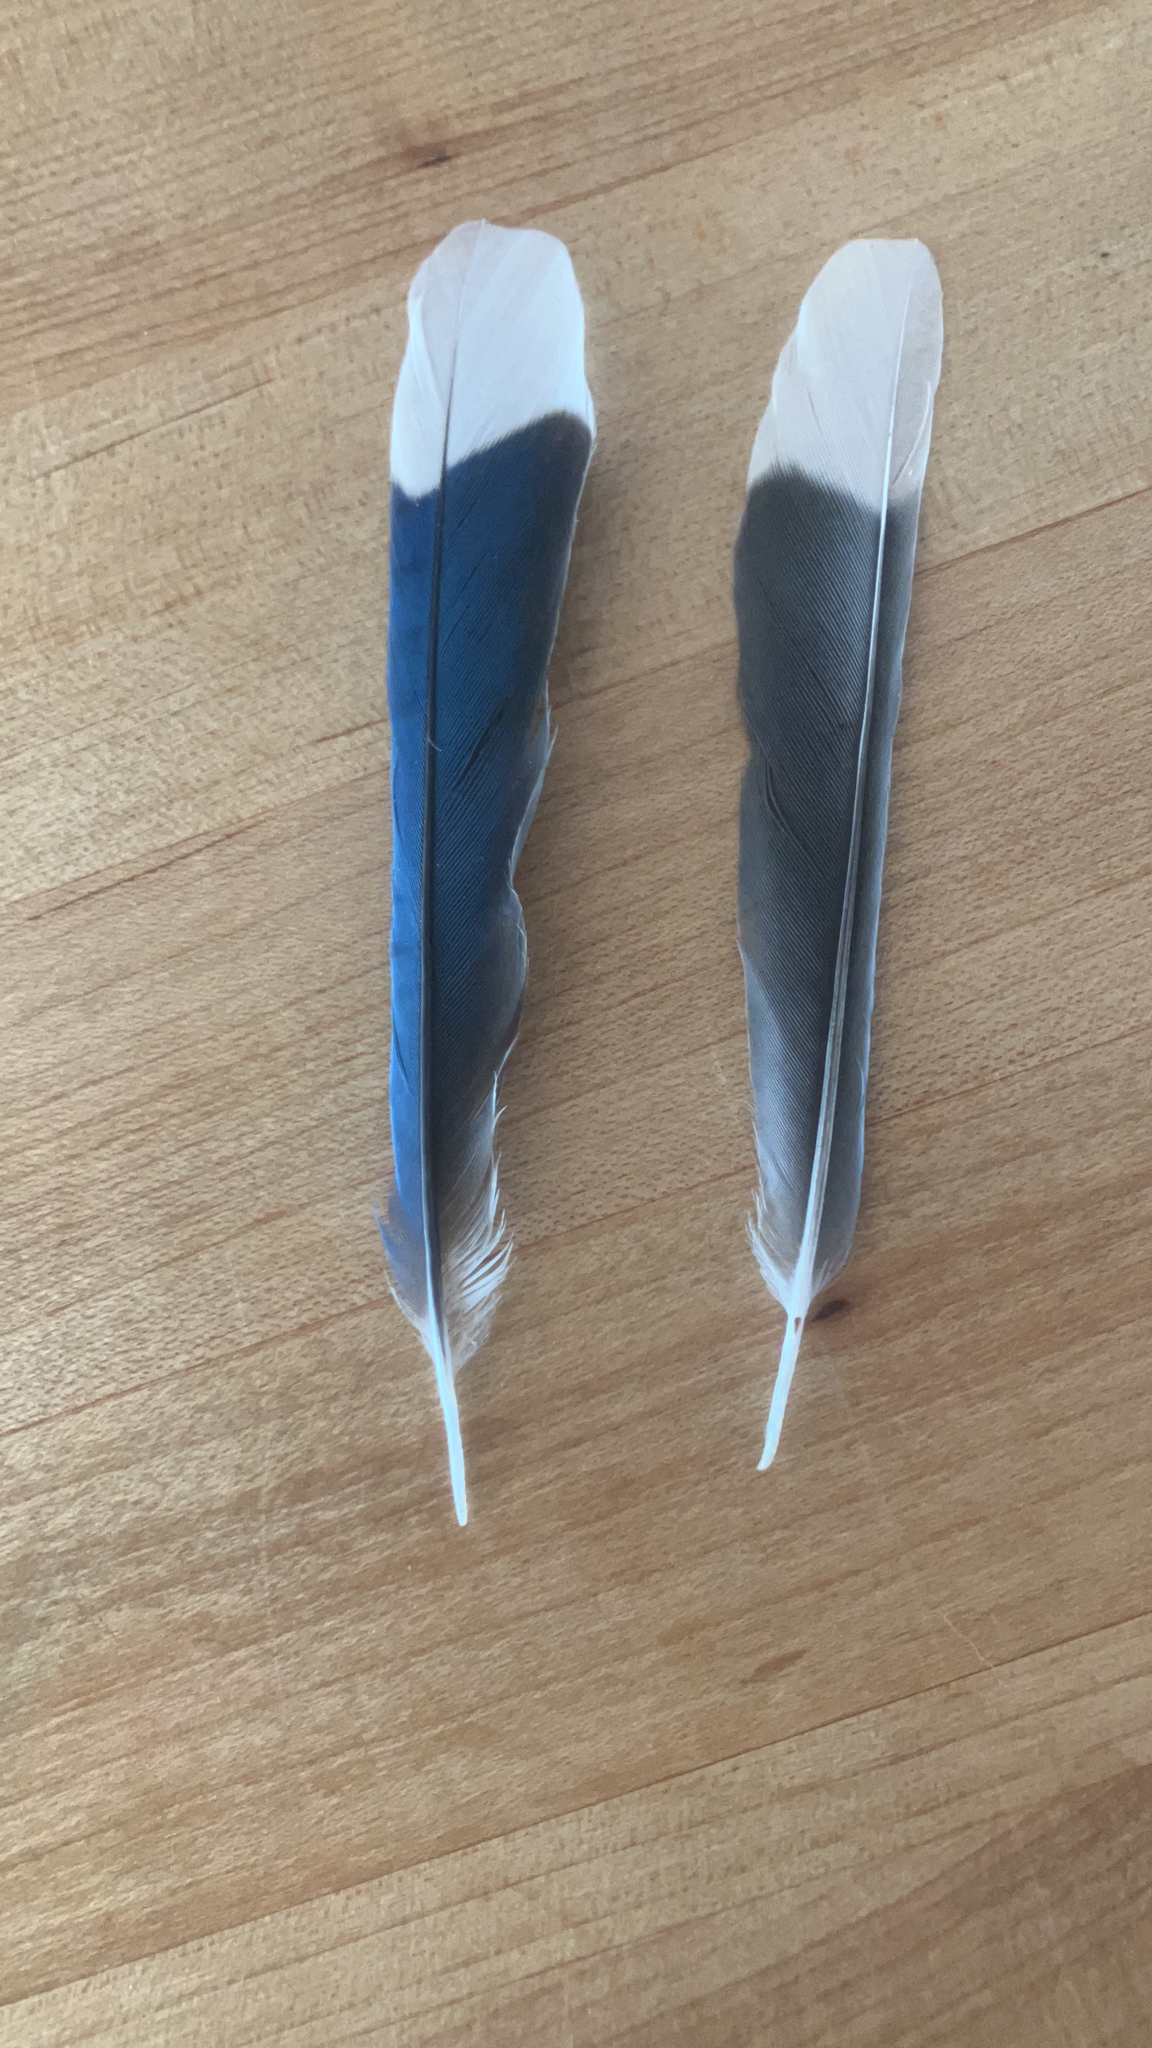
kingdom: Animalia
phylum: Chordata
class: Aves
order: Passeriformes
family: Corvidae
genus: Cyanocitta
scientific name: Cyanocitta cristata
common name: Blue jay
